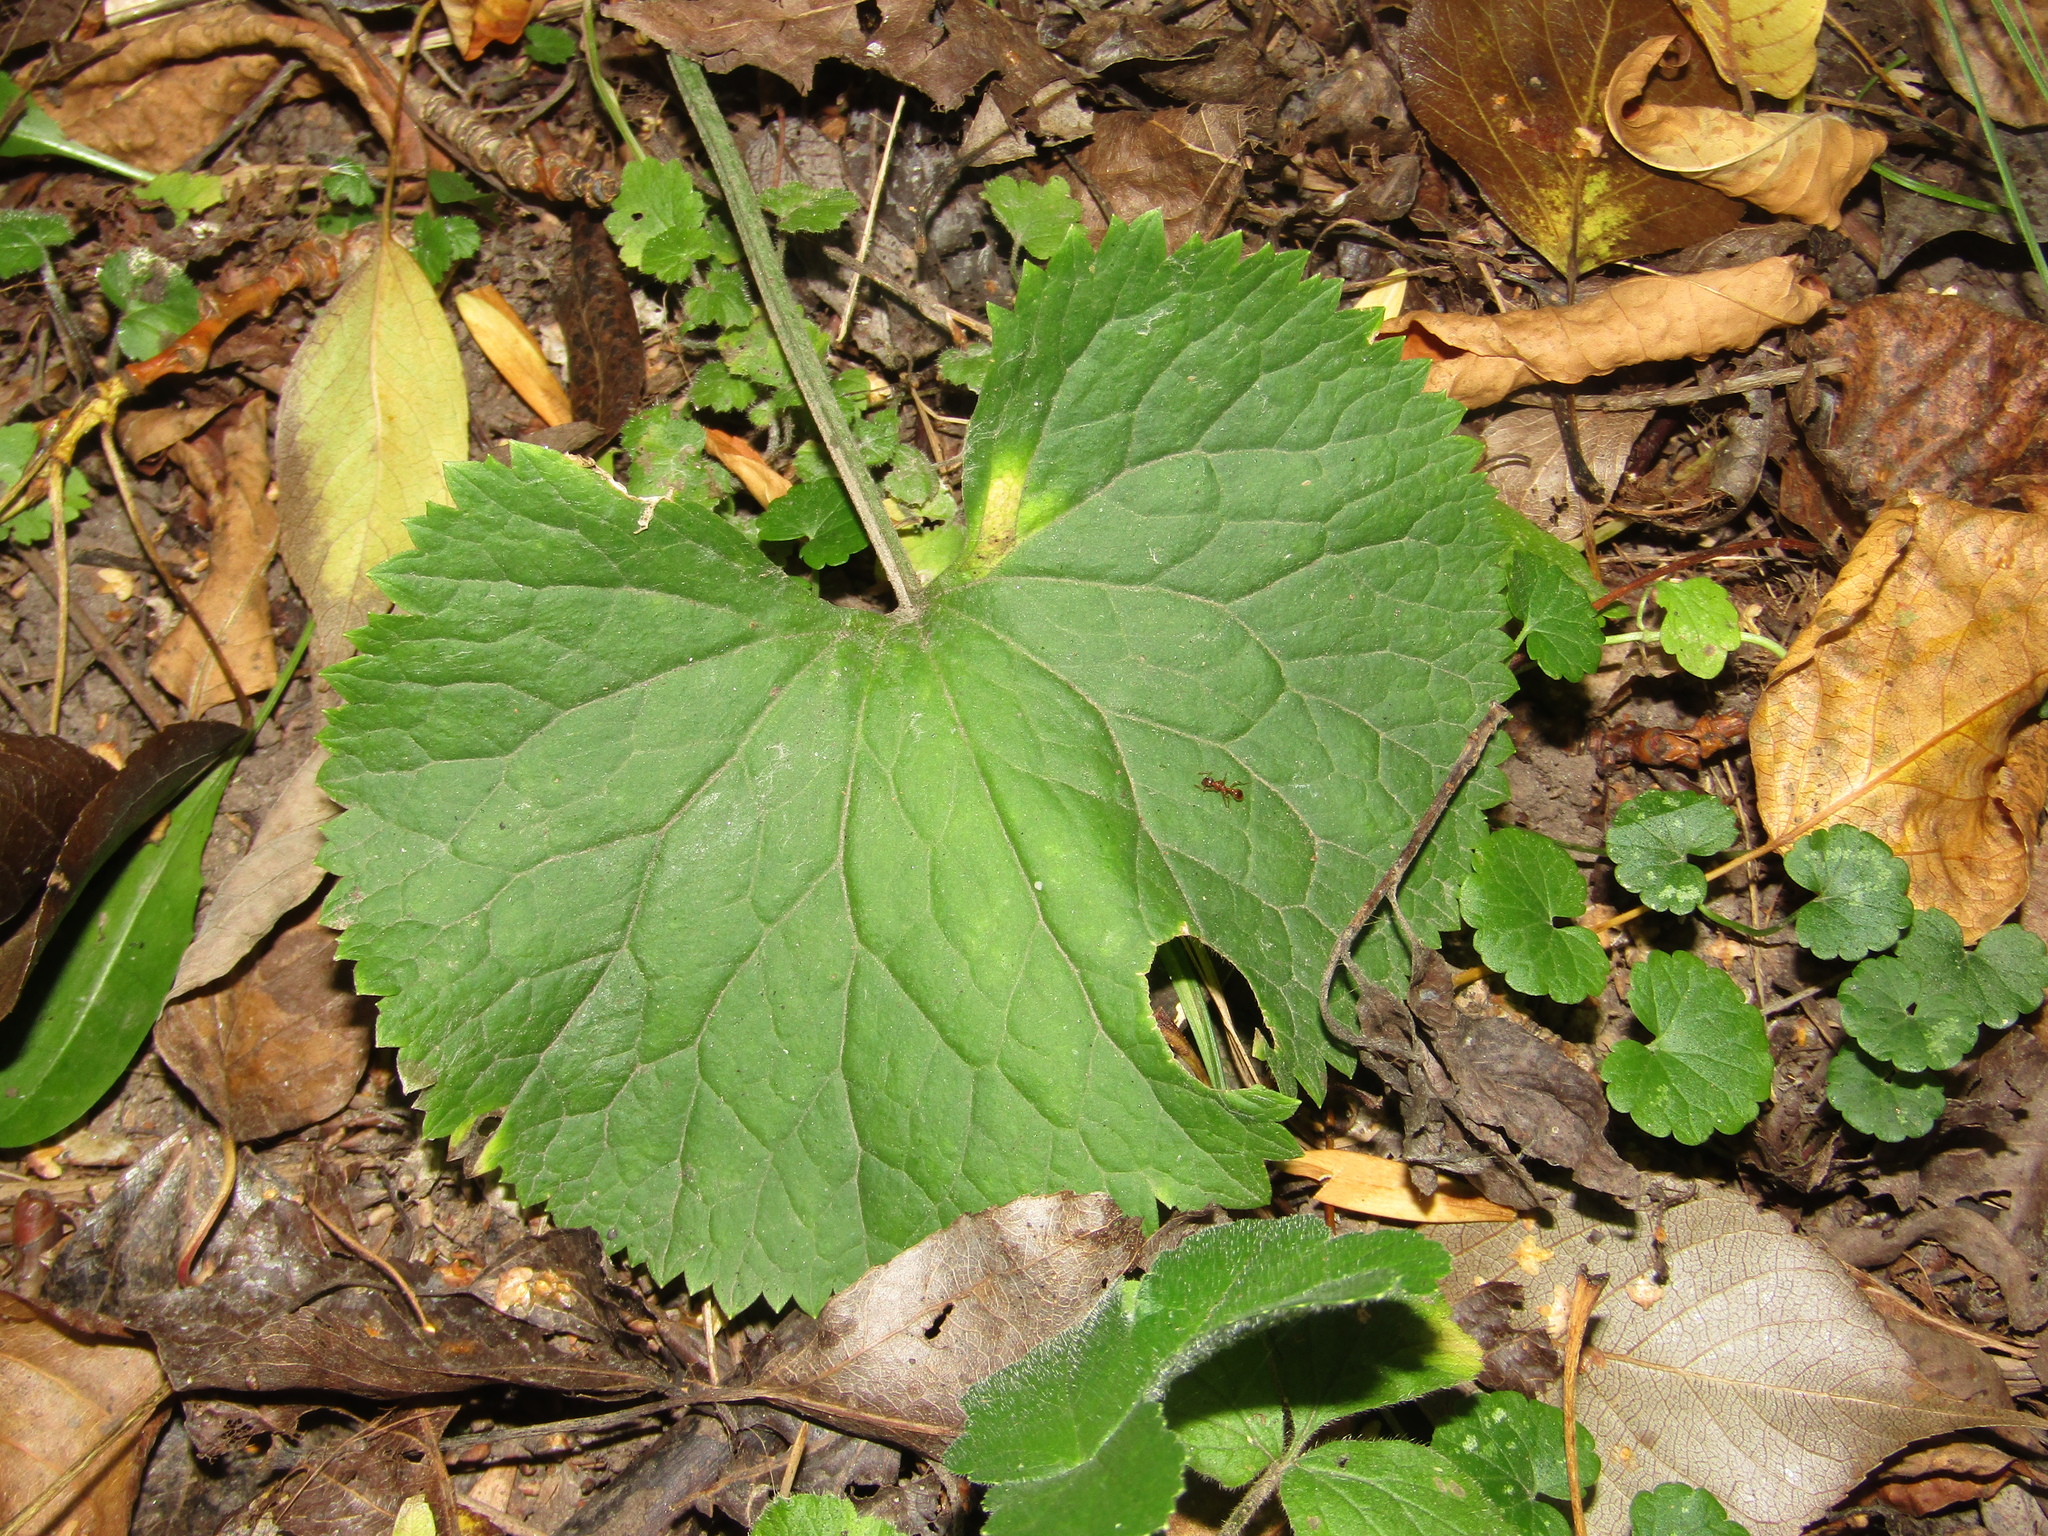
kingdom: Plantae
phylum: Tracheophyta
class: Magnoliopsida
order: Ranunculales
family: Ranunculaceae
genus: Ranunculus
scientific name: Ranunculus cassubicus
